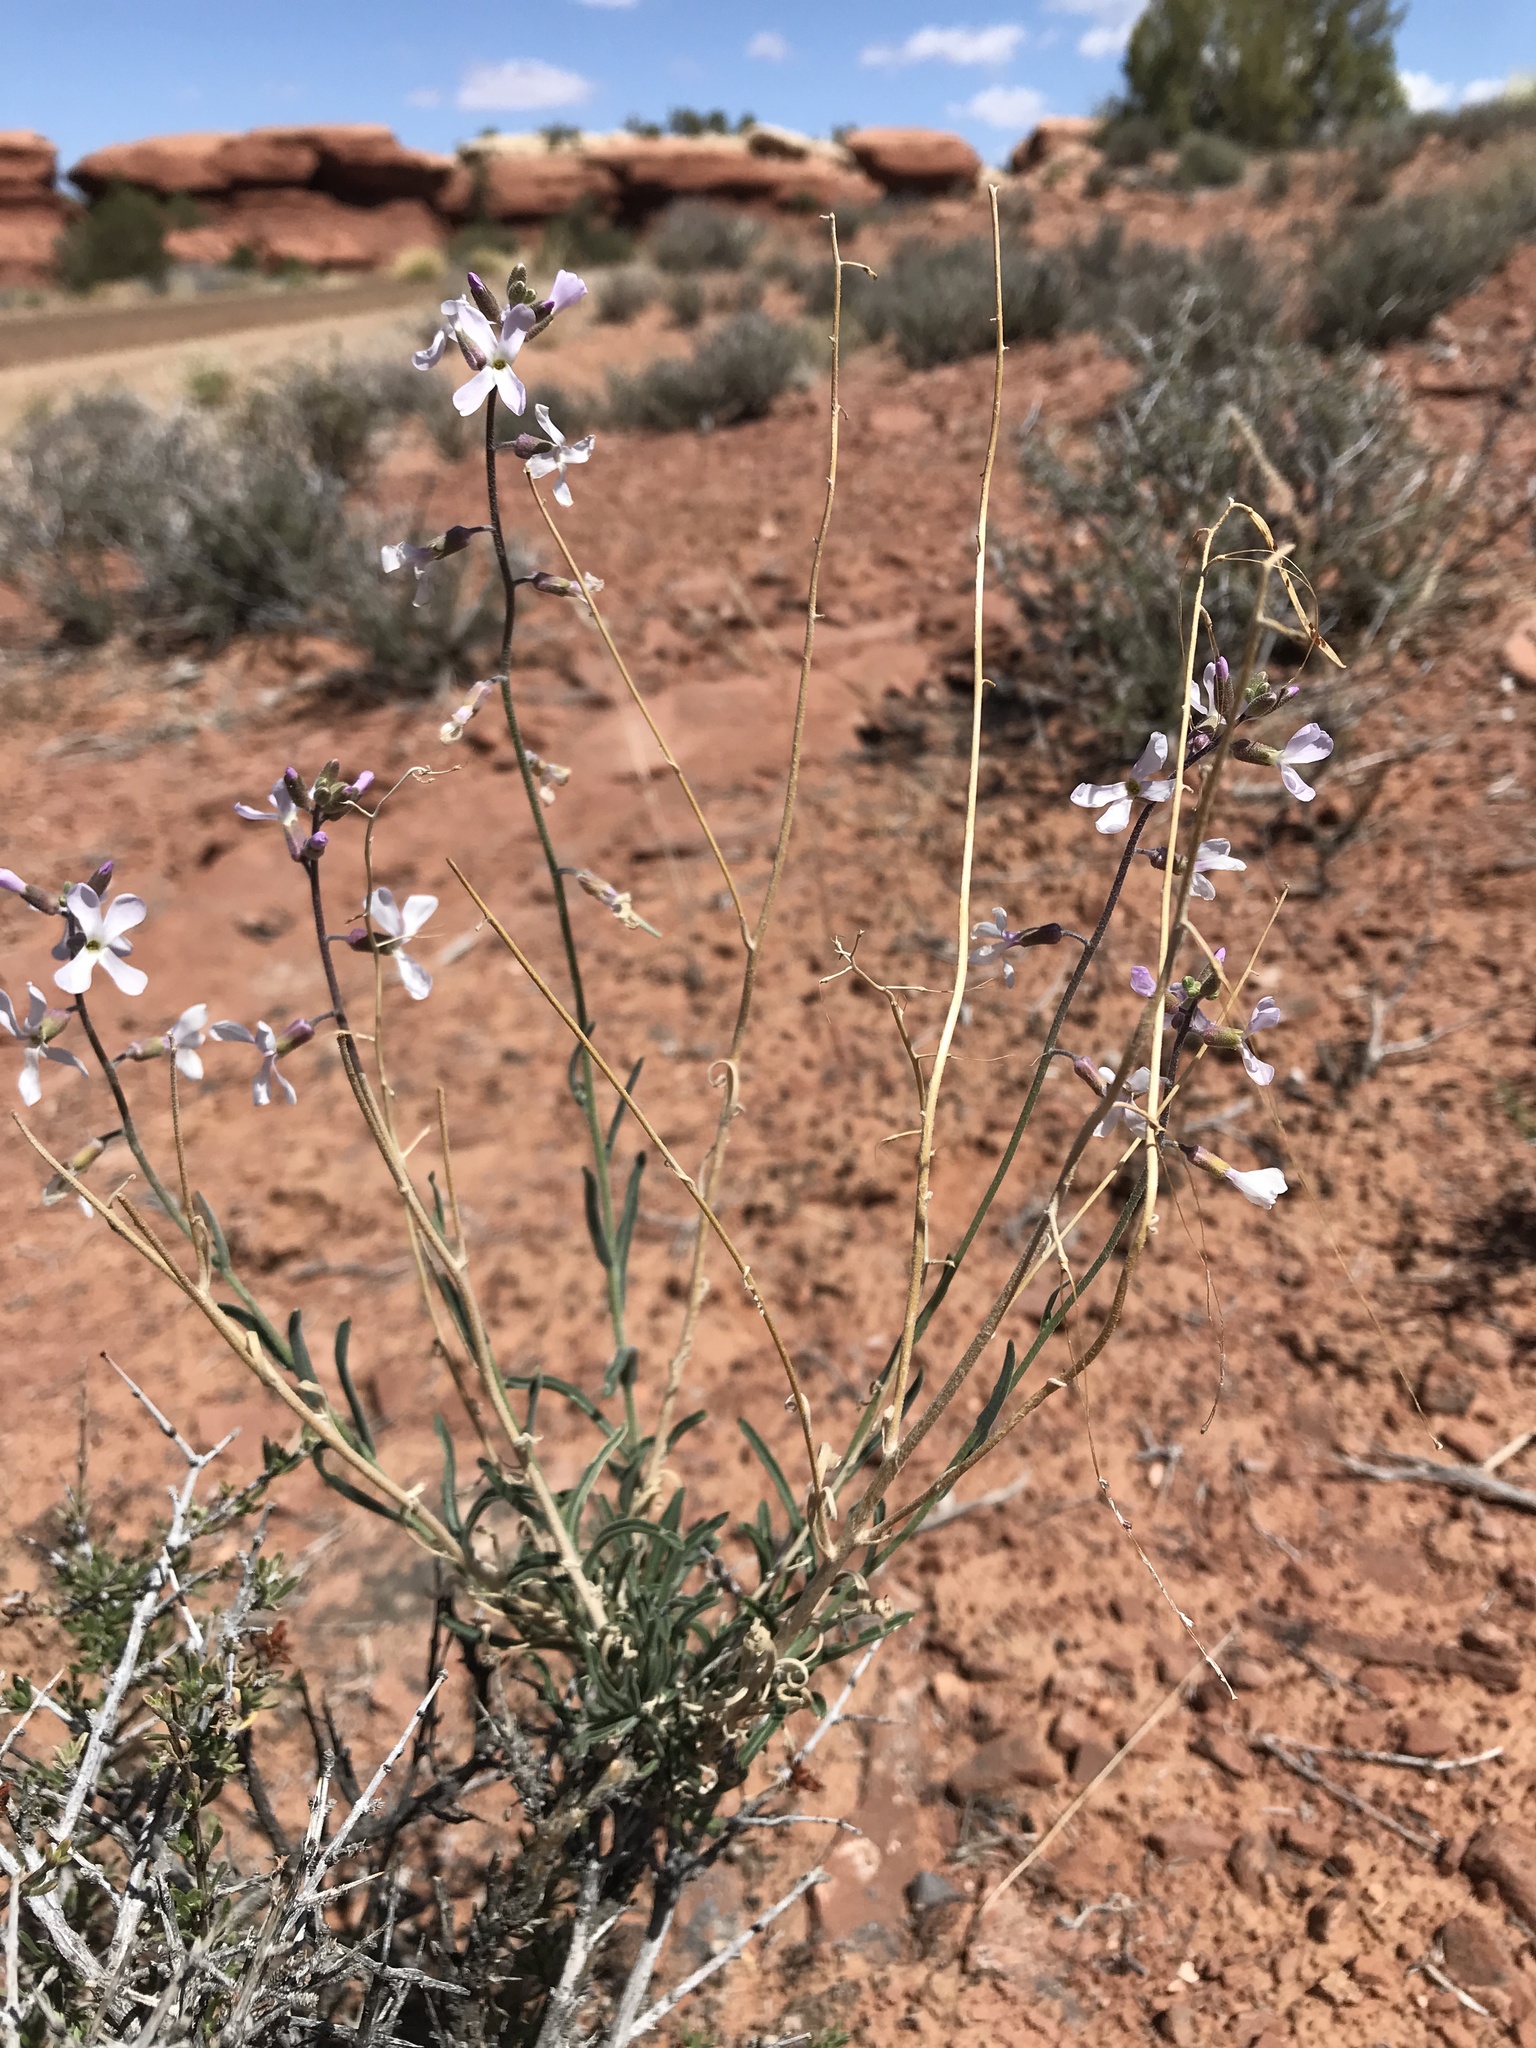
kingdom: Plantae
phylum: Tracheophyta
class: Magnoliopsida
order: Brassicales
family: Brassicaceae
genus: Boechera
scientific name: Boechera formosa
